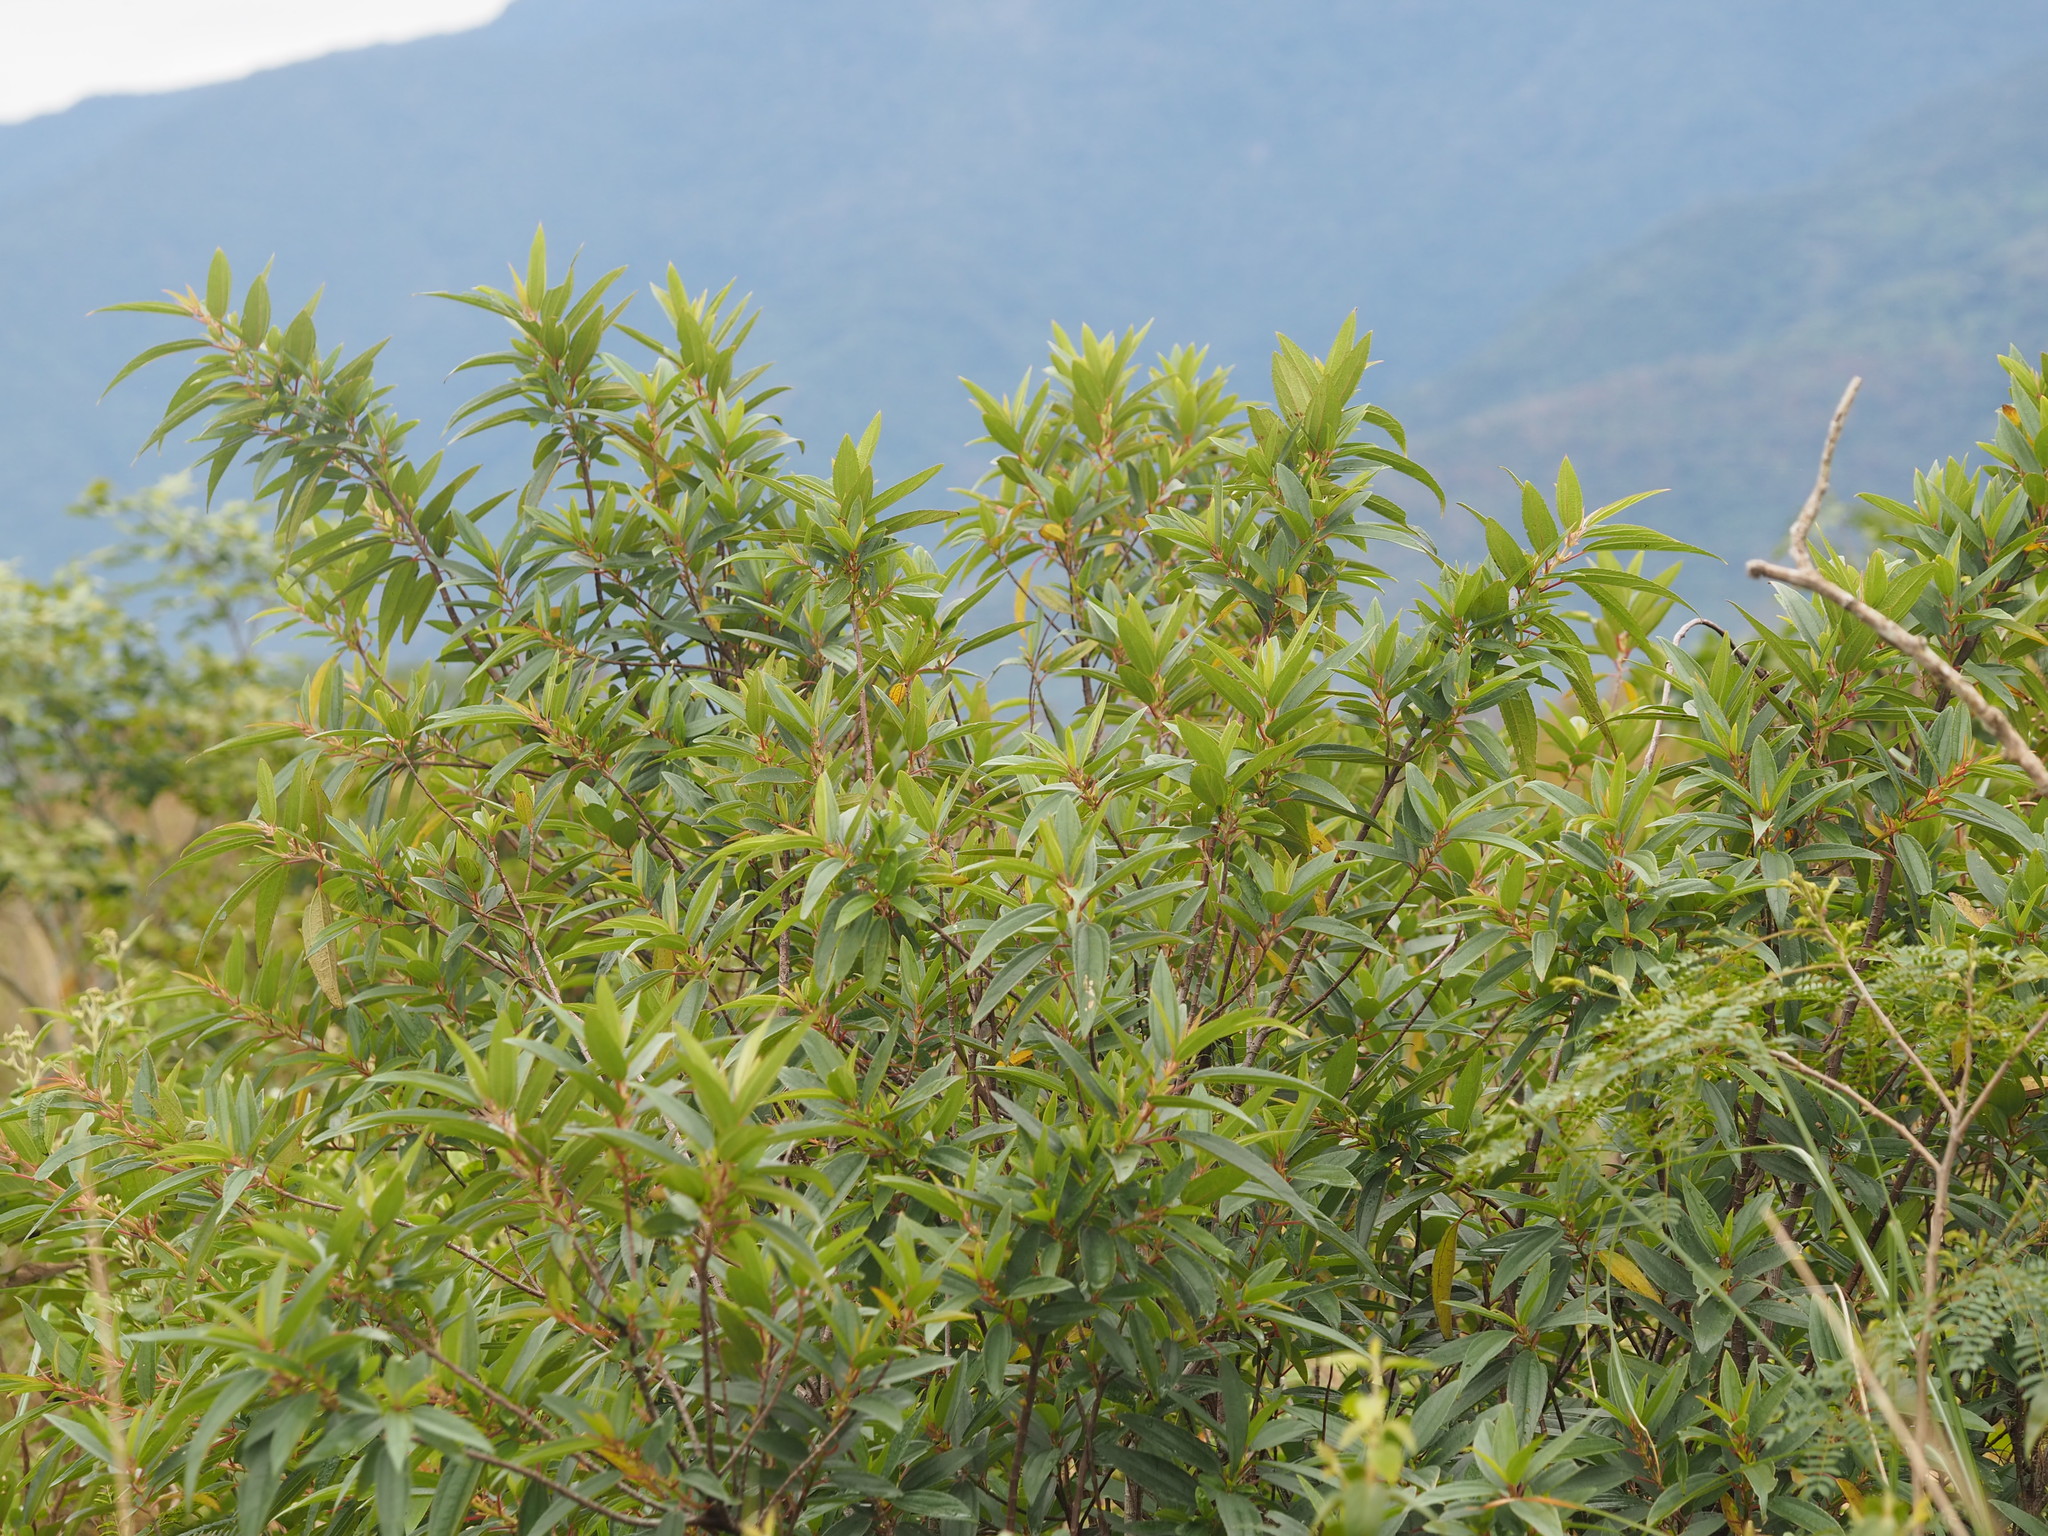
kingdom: Plantae
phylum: Tracheophyta
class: Magnoliopsida
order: Rosales
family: Urticaceae
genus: Boehmeria
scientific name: Boehmeria densiflora
